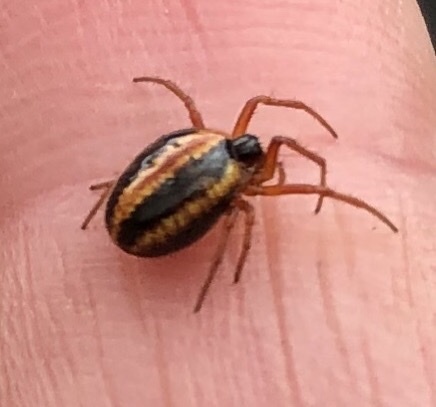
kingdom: Animalia
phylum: Arthropoda
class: Arachnida
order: Araneae
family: Araneidae
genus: Hypsosinga
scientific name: Hypsosinga heri
